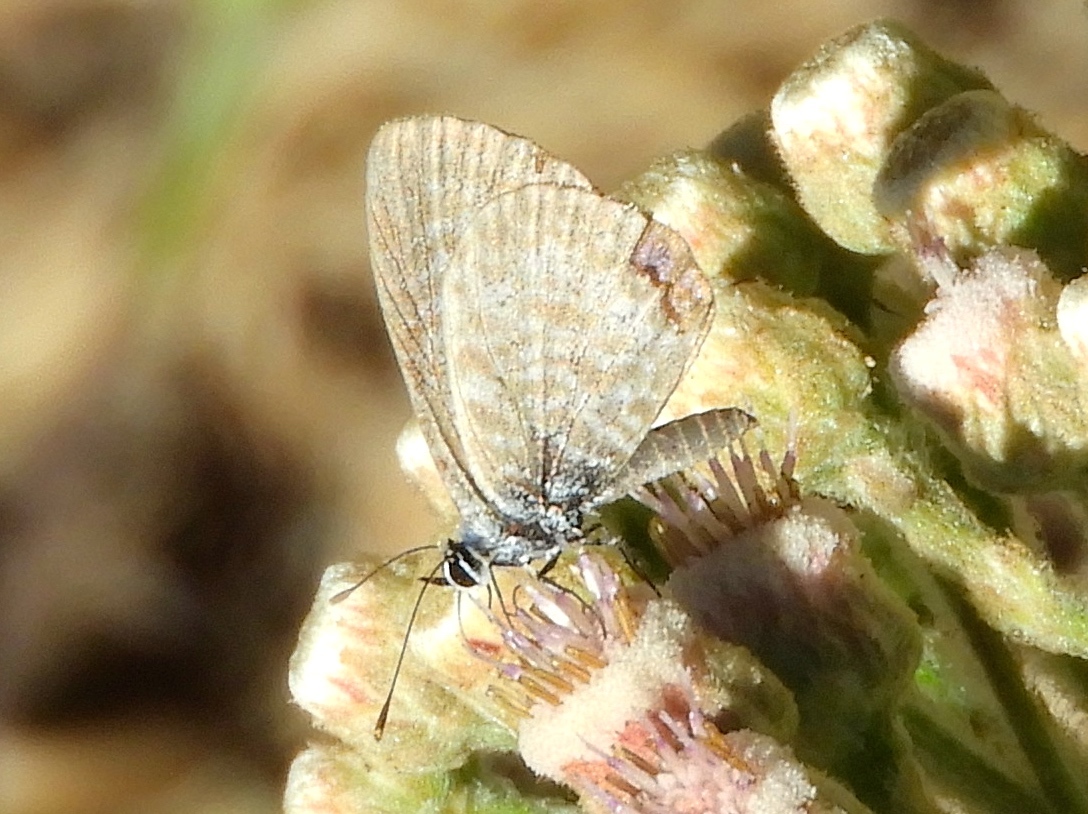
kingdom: Animalia
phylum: Arthropoda
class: Insecta
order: Lepidoptera
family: Lycaenidae
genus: Leptotes
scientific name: Leptotes marina
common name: Marine blue
